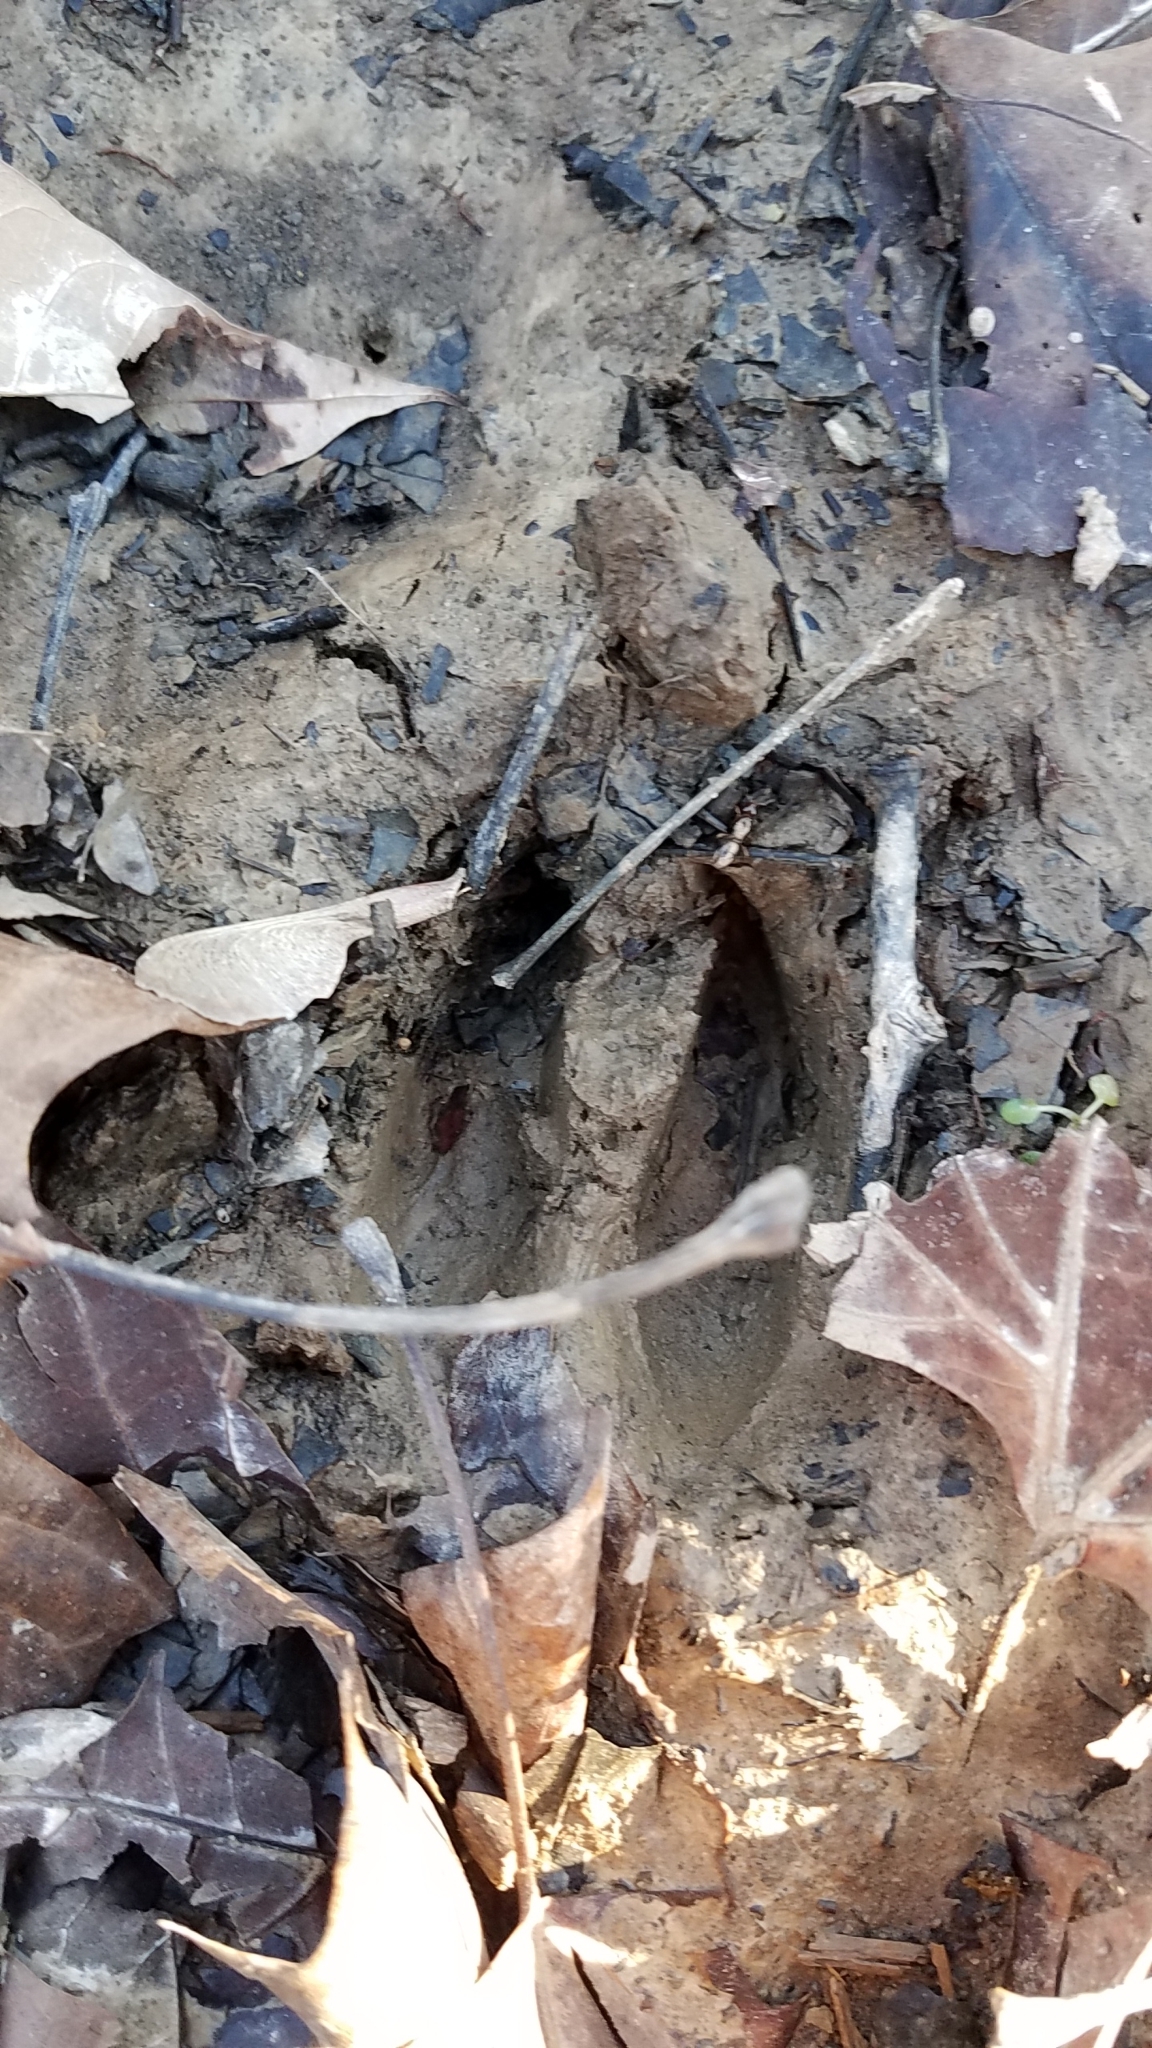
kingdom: Animalia
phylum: Chordata
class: Mammalia
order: Artiodactyla
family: Cervidae
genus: Odocoileus
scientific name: Odocoileus virginianus
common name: White-tailed deer
